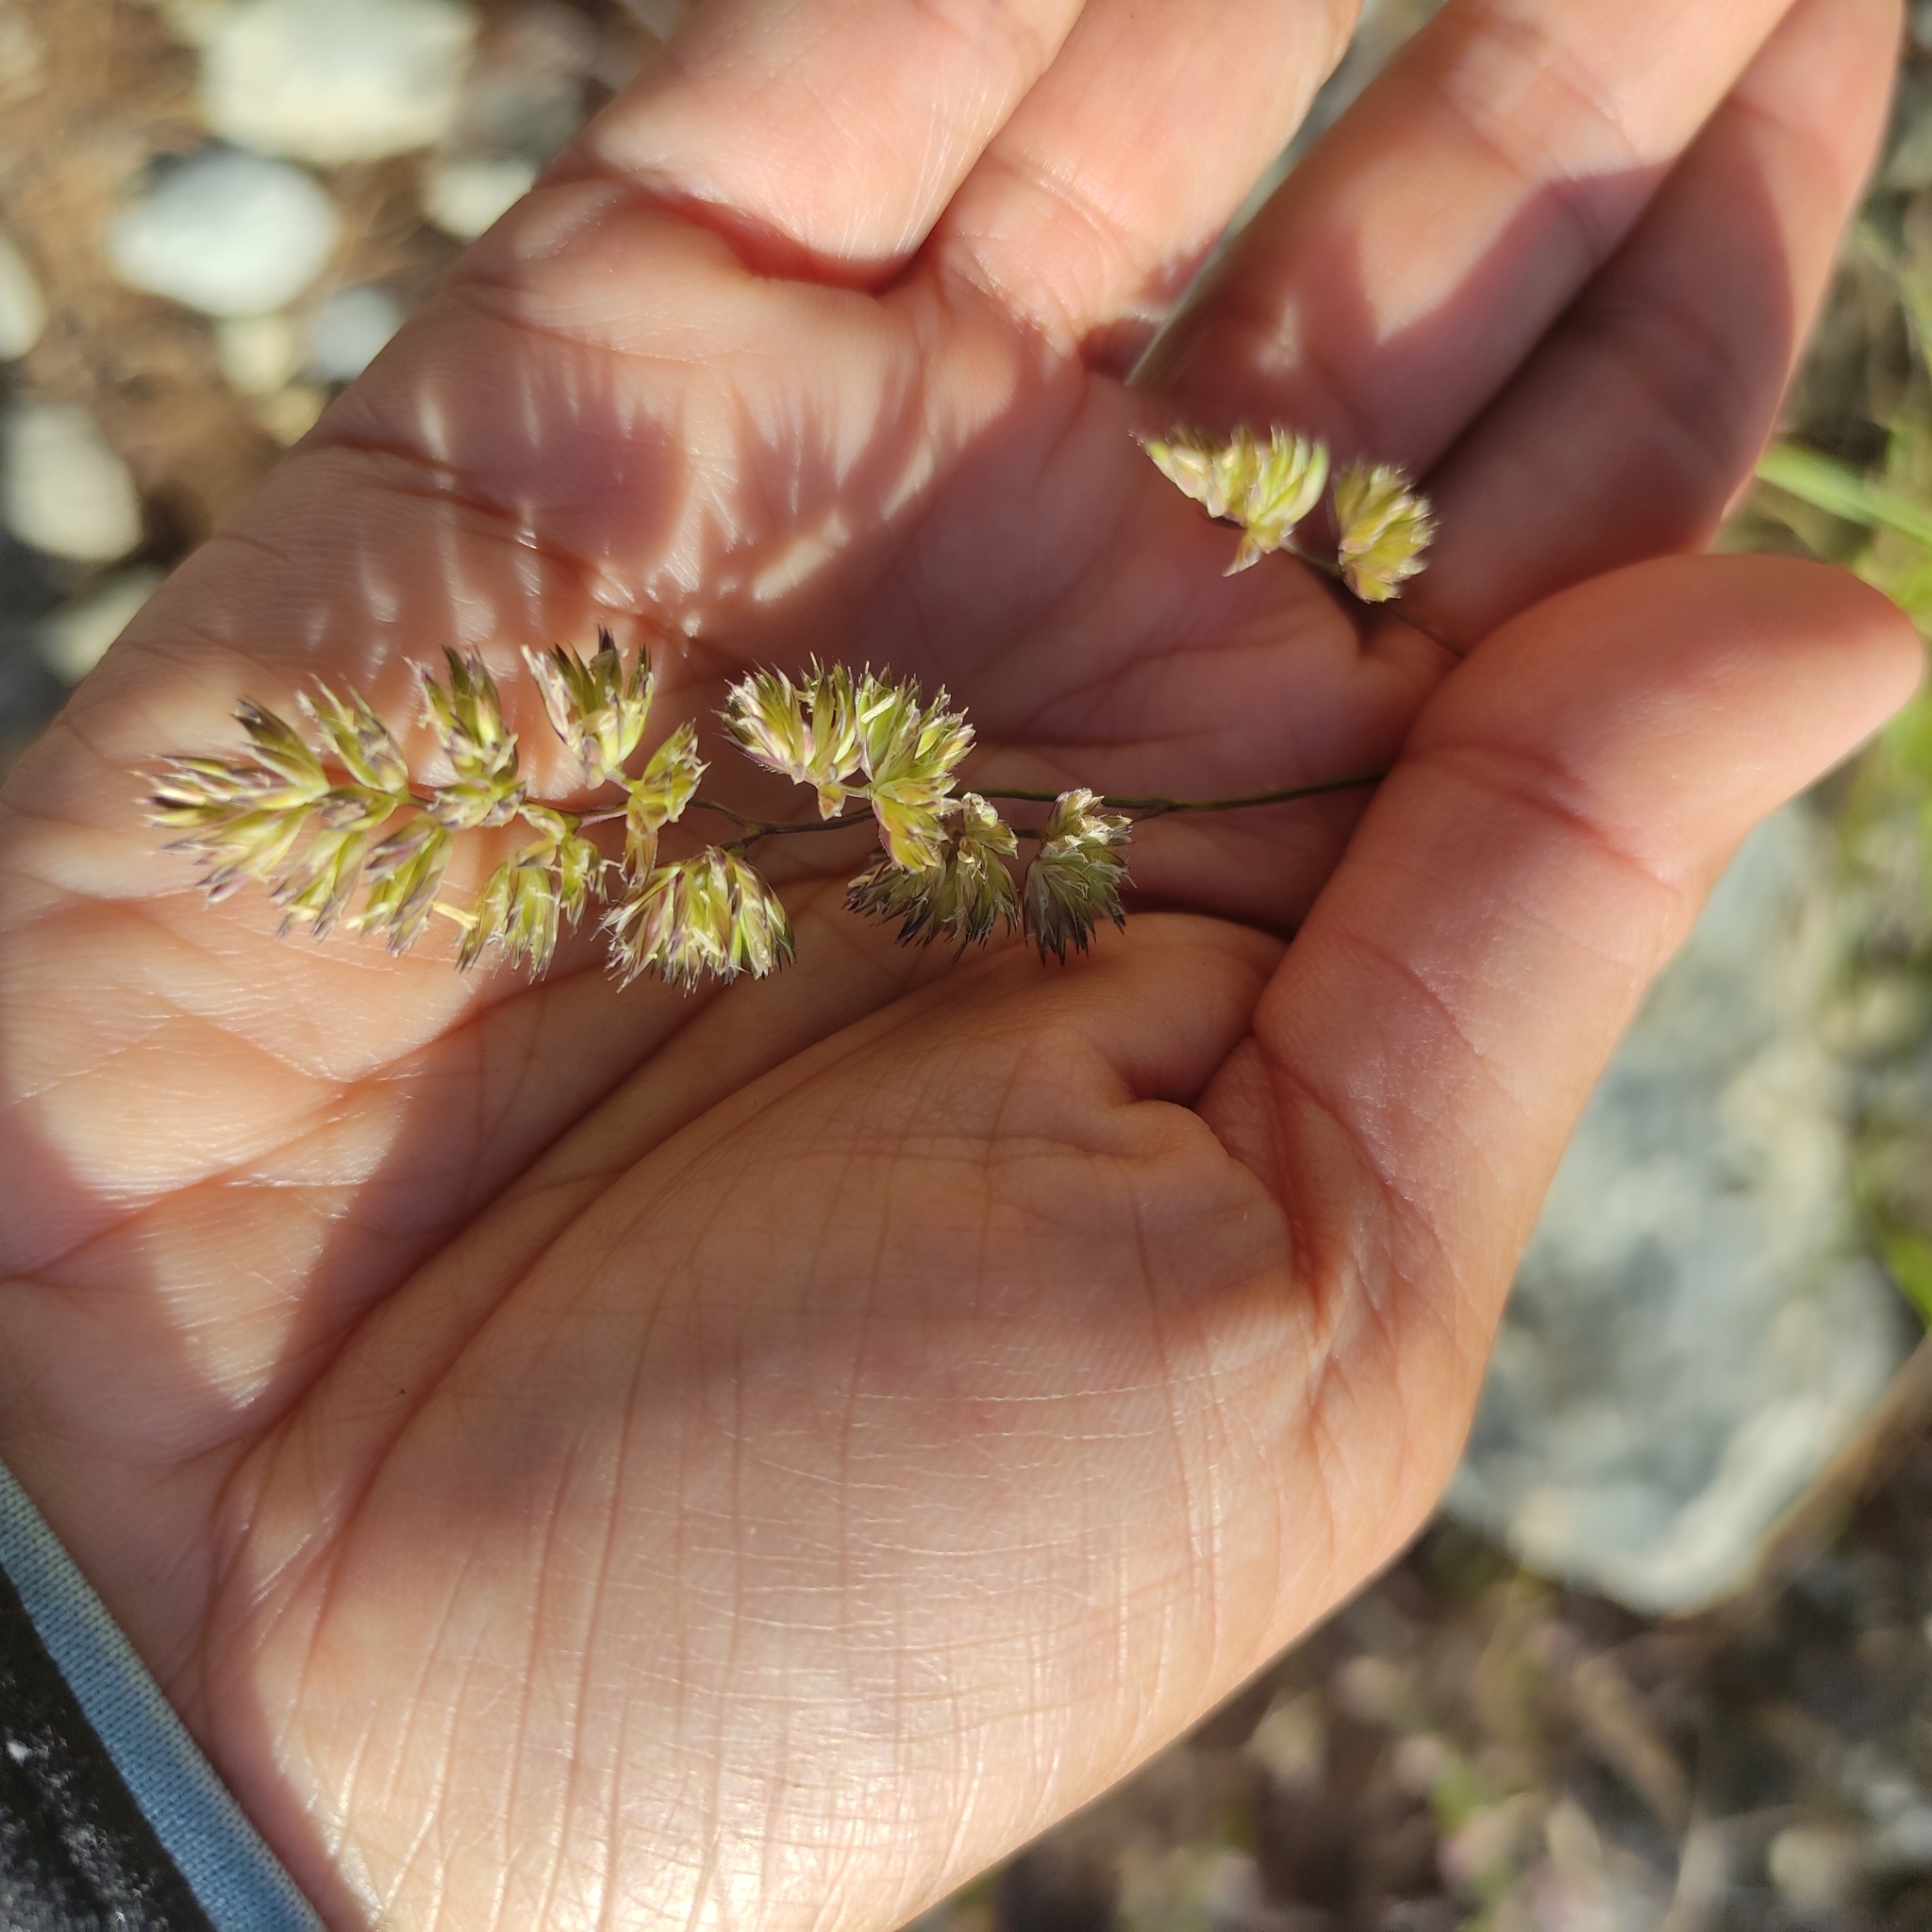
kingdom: Plantae
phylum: Tracheophyta
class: Liliopsida
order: Poales
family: Poaceae
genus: Dactylis
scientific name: Dactylis glomerata
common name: Orchardgrass
